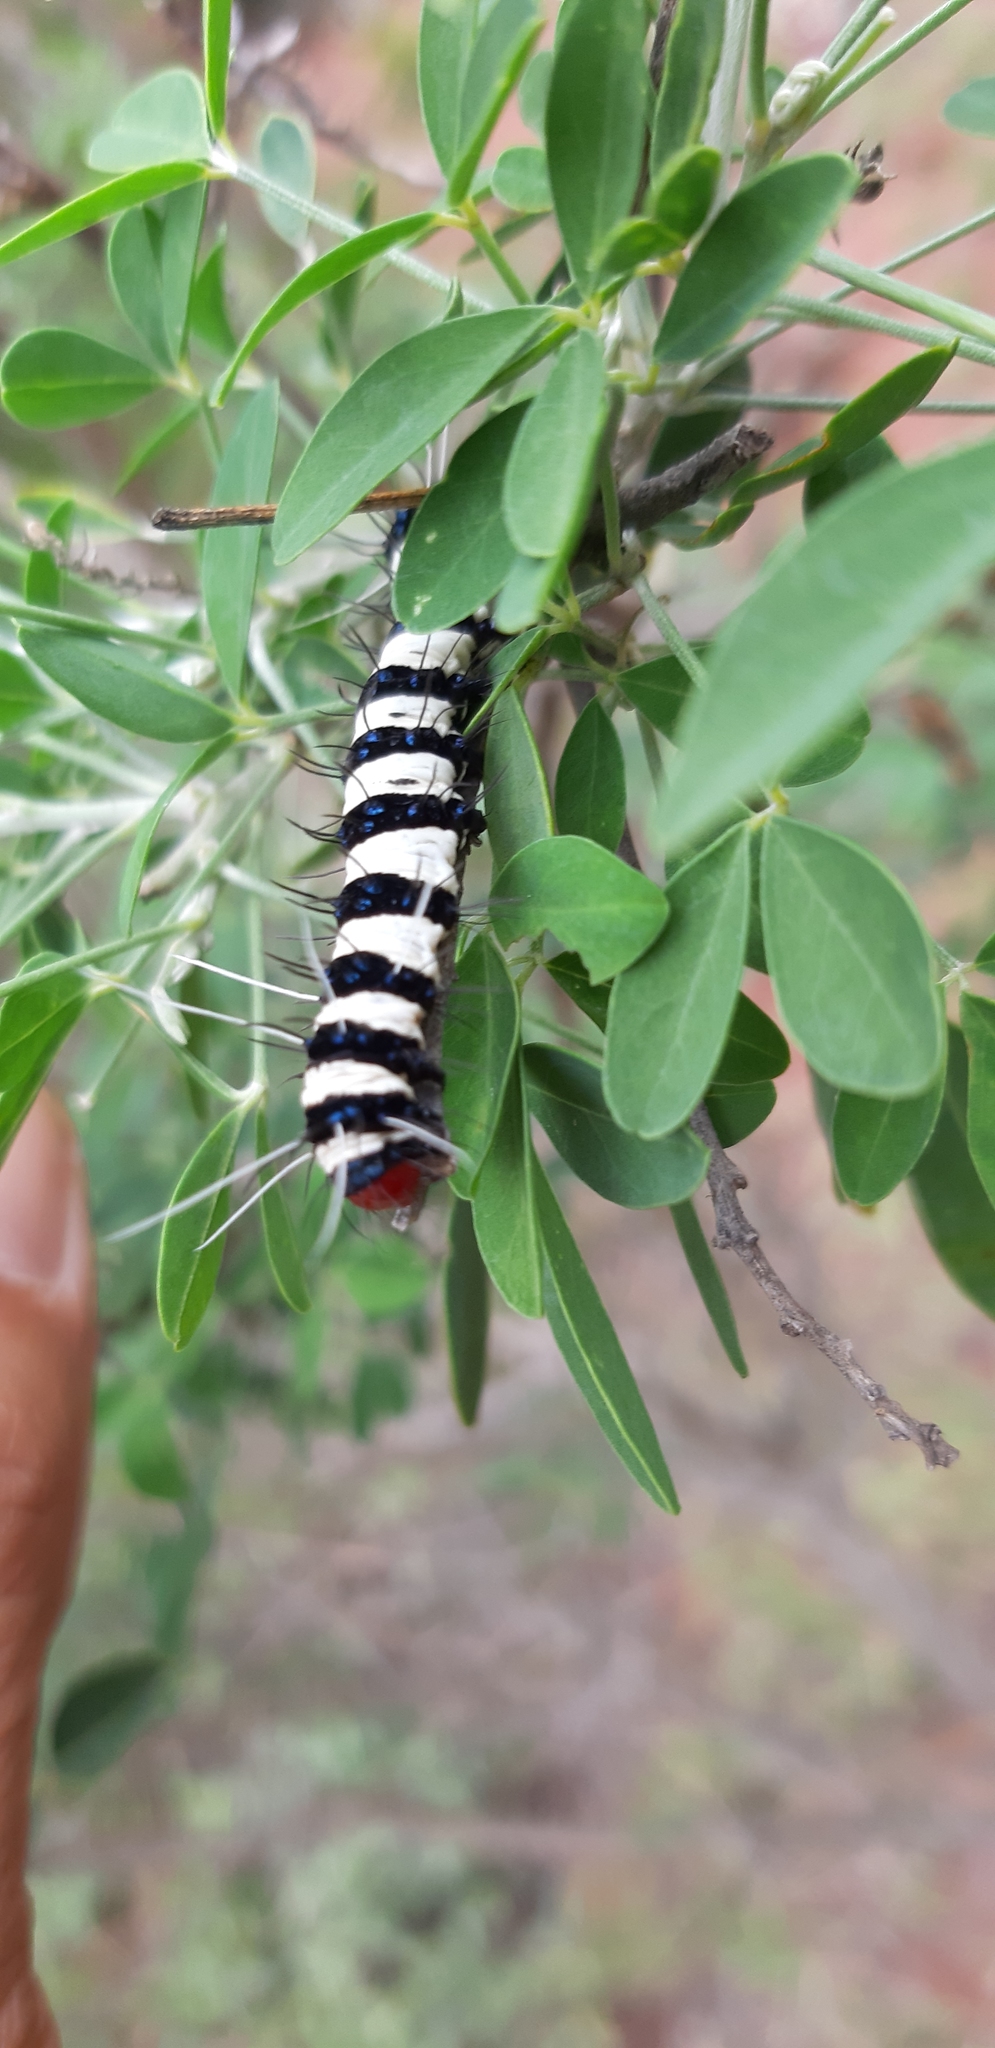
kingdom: Animalia
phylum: Arthropoda
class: Insecta
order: Lepidoptera
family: Erebidae
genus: Amphicallia
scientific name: Amphicallia bellatrix
